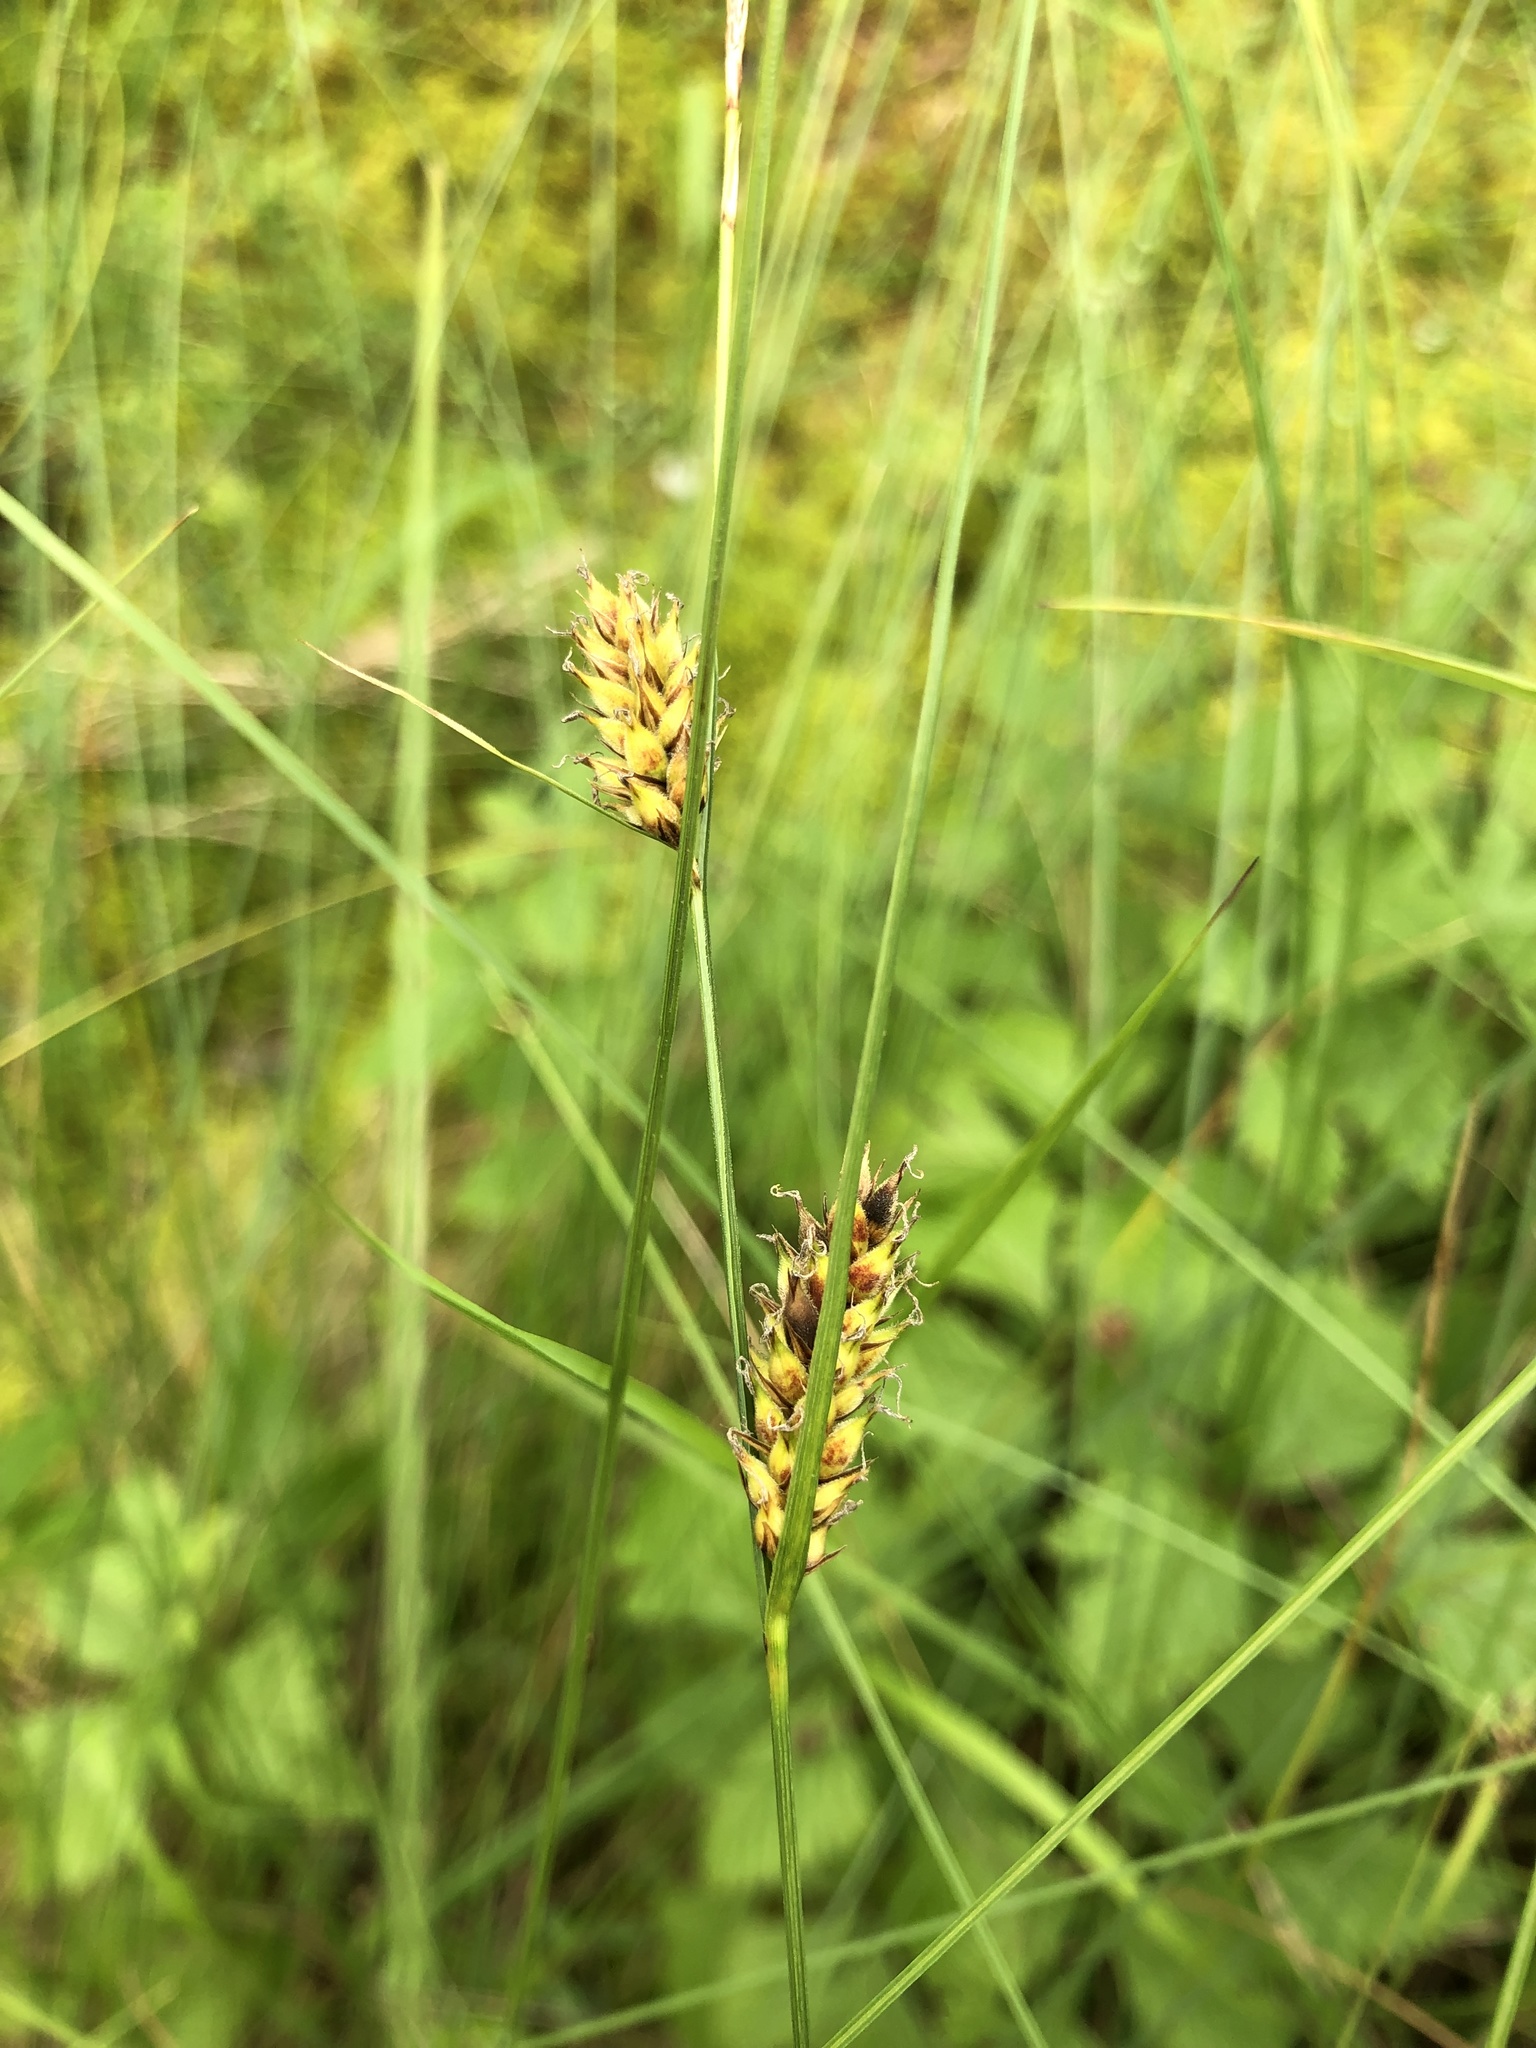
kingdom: Plantae
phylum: Tracheophyta
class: Liliopsida
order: Poales
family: Cyperaceae
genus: Carex
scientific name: Carex lasiocarpa
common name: Slender sedge
